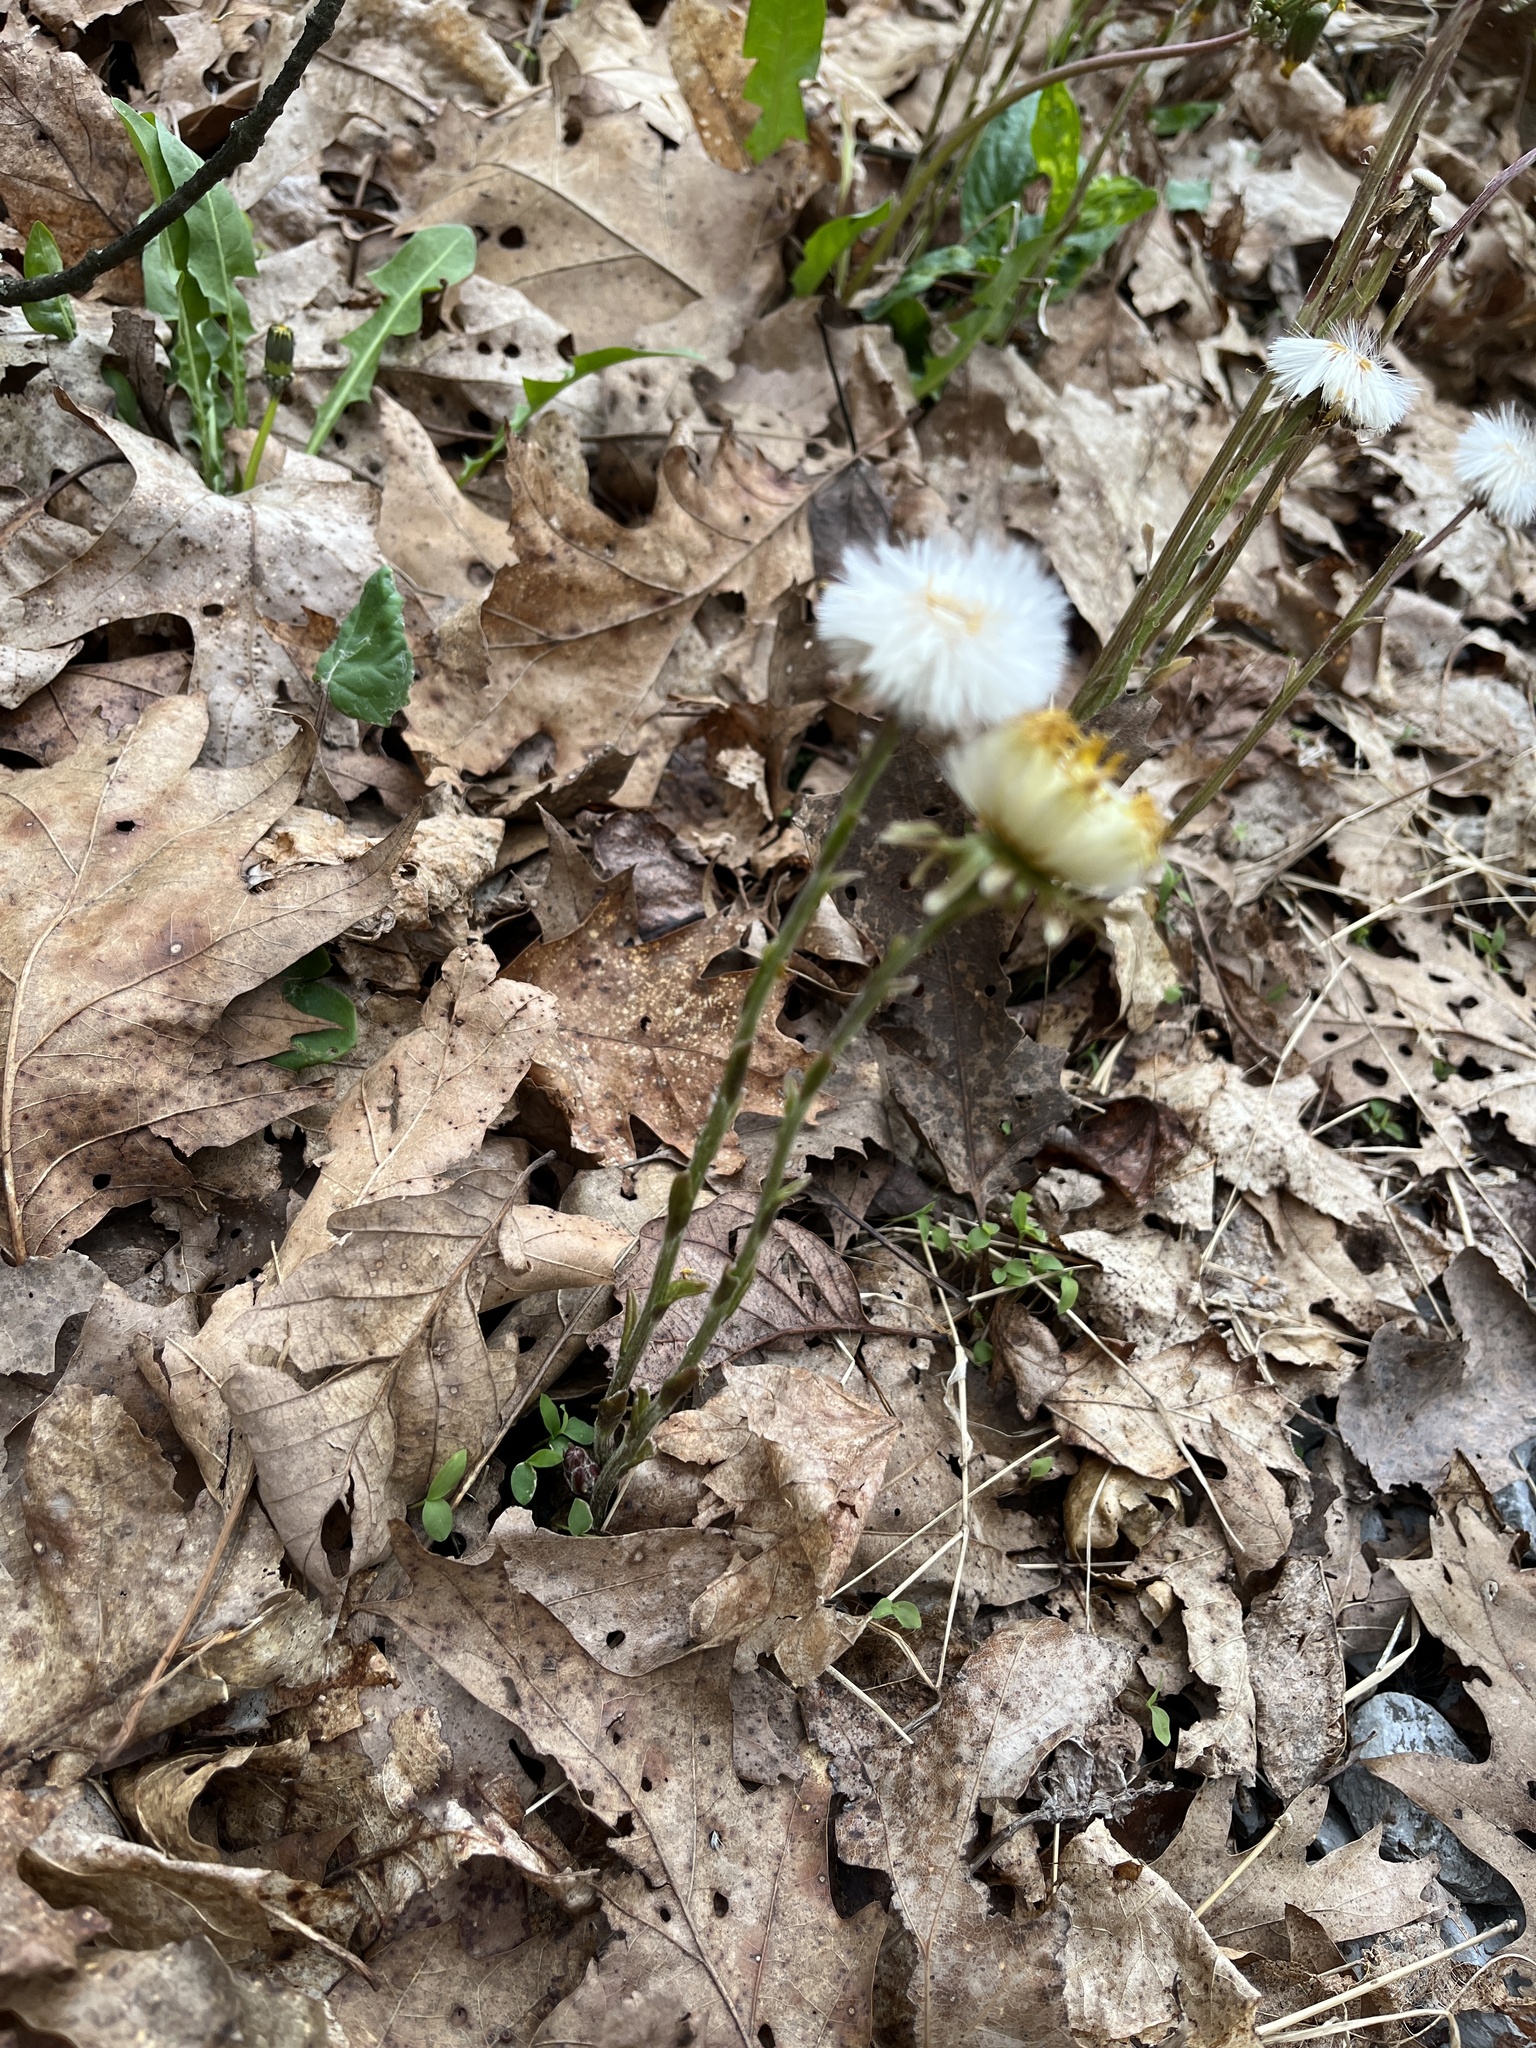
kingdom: Plantae
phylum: Tracheophyta
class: Magnoliopsida
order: Asterales
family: Asteraceae
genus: Tussilago
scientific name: Tussilago farfara
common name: Coltsfoot
